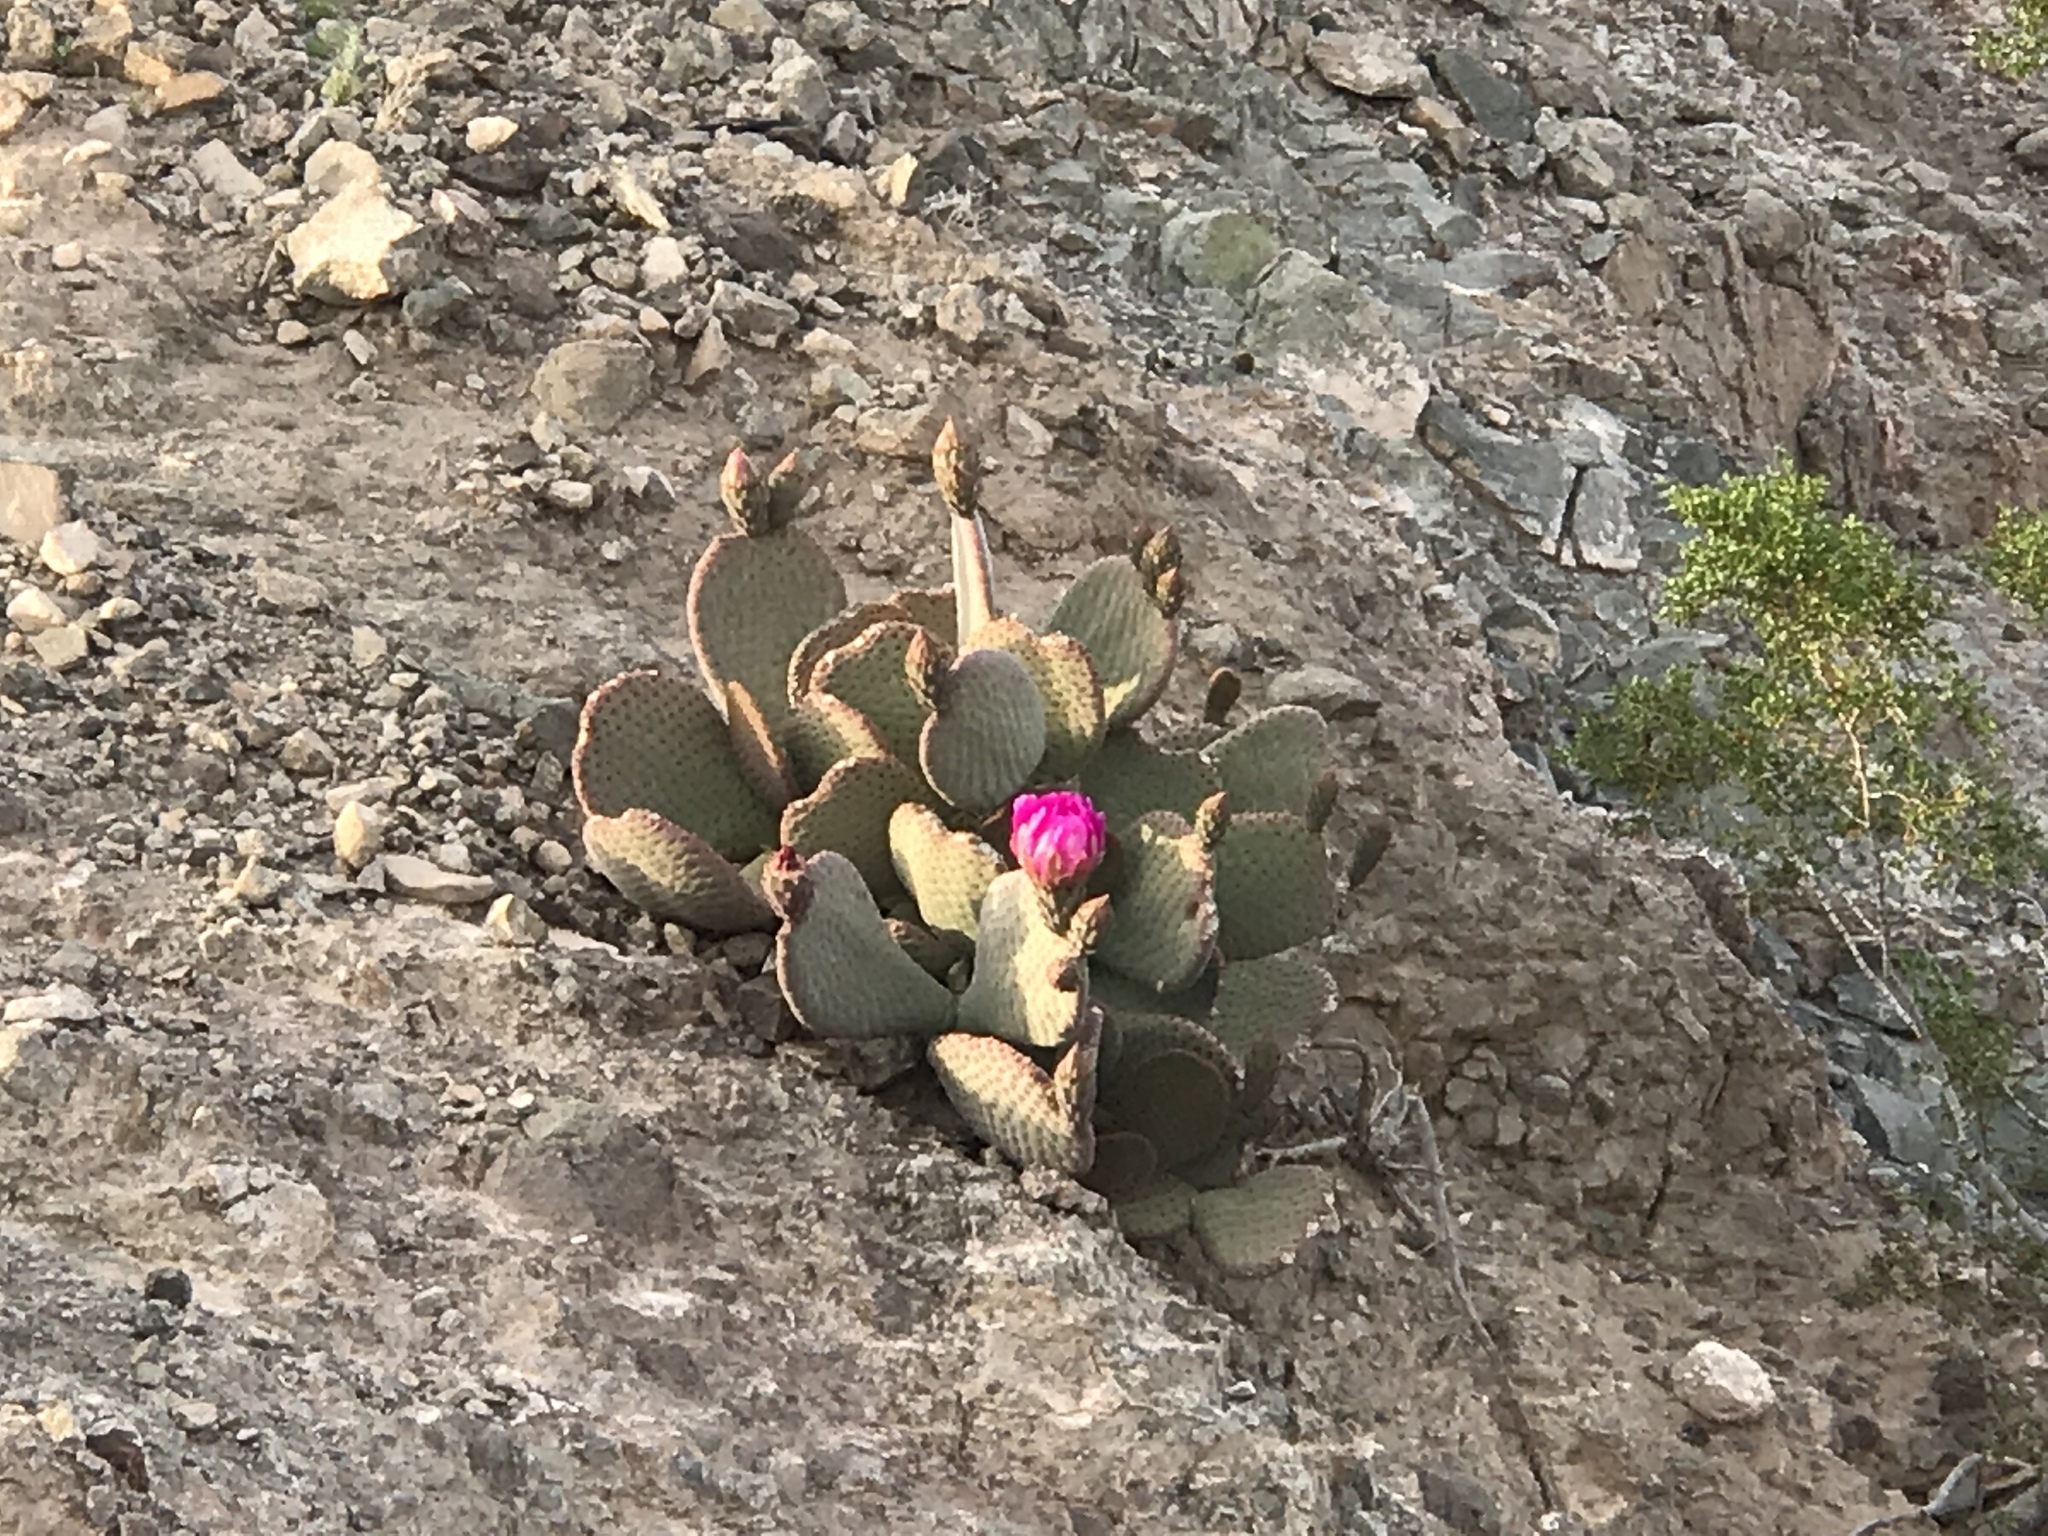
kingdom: Plantae
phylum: Tracheophyta
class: Magnoliopsida
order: Caryophyllales
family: Cactaceae
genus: Opuntia
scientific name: Opuntia basilaris
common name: Beavertail prickly-pear
